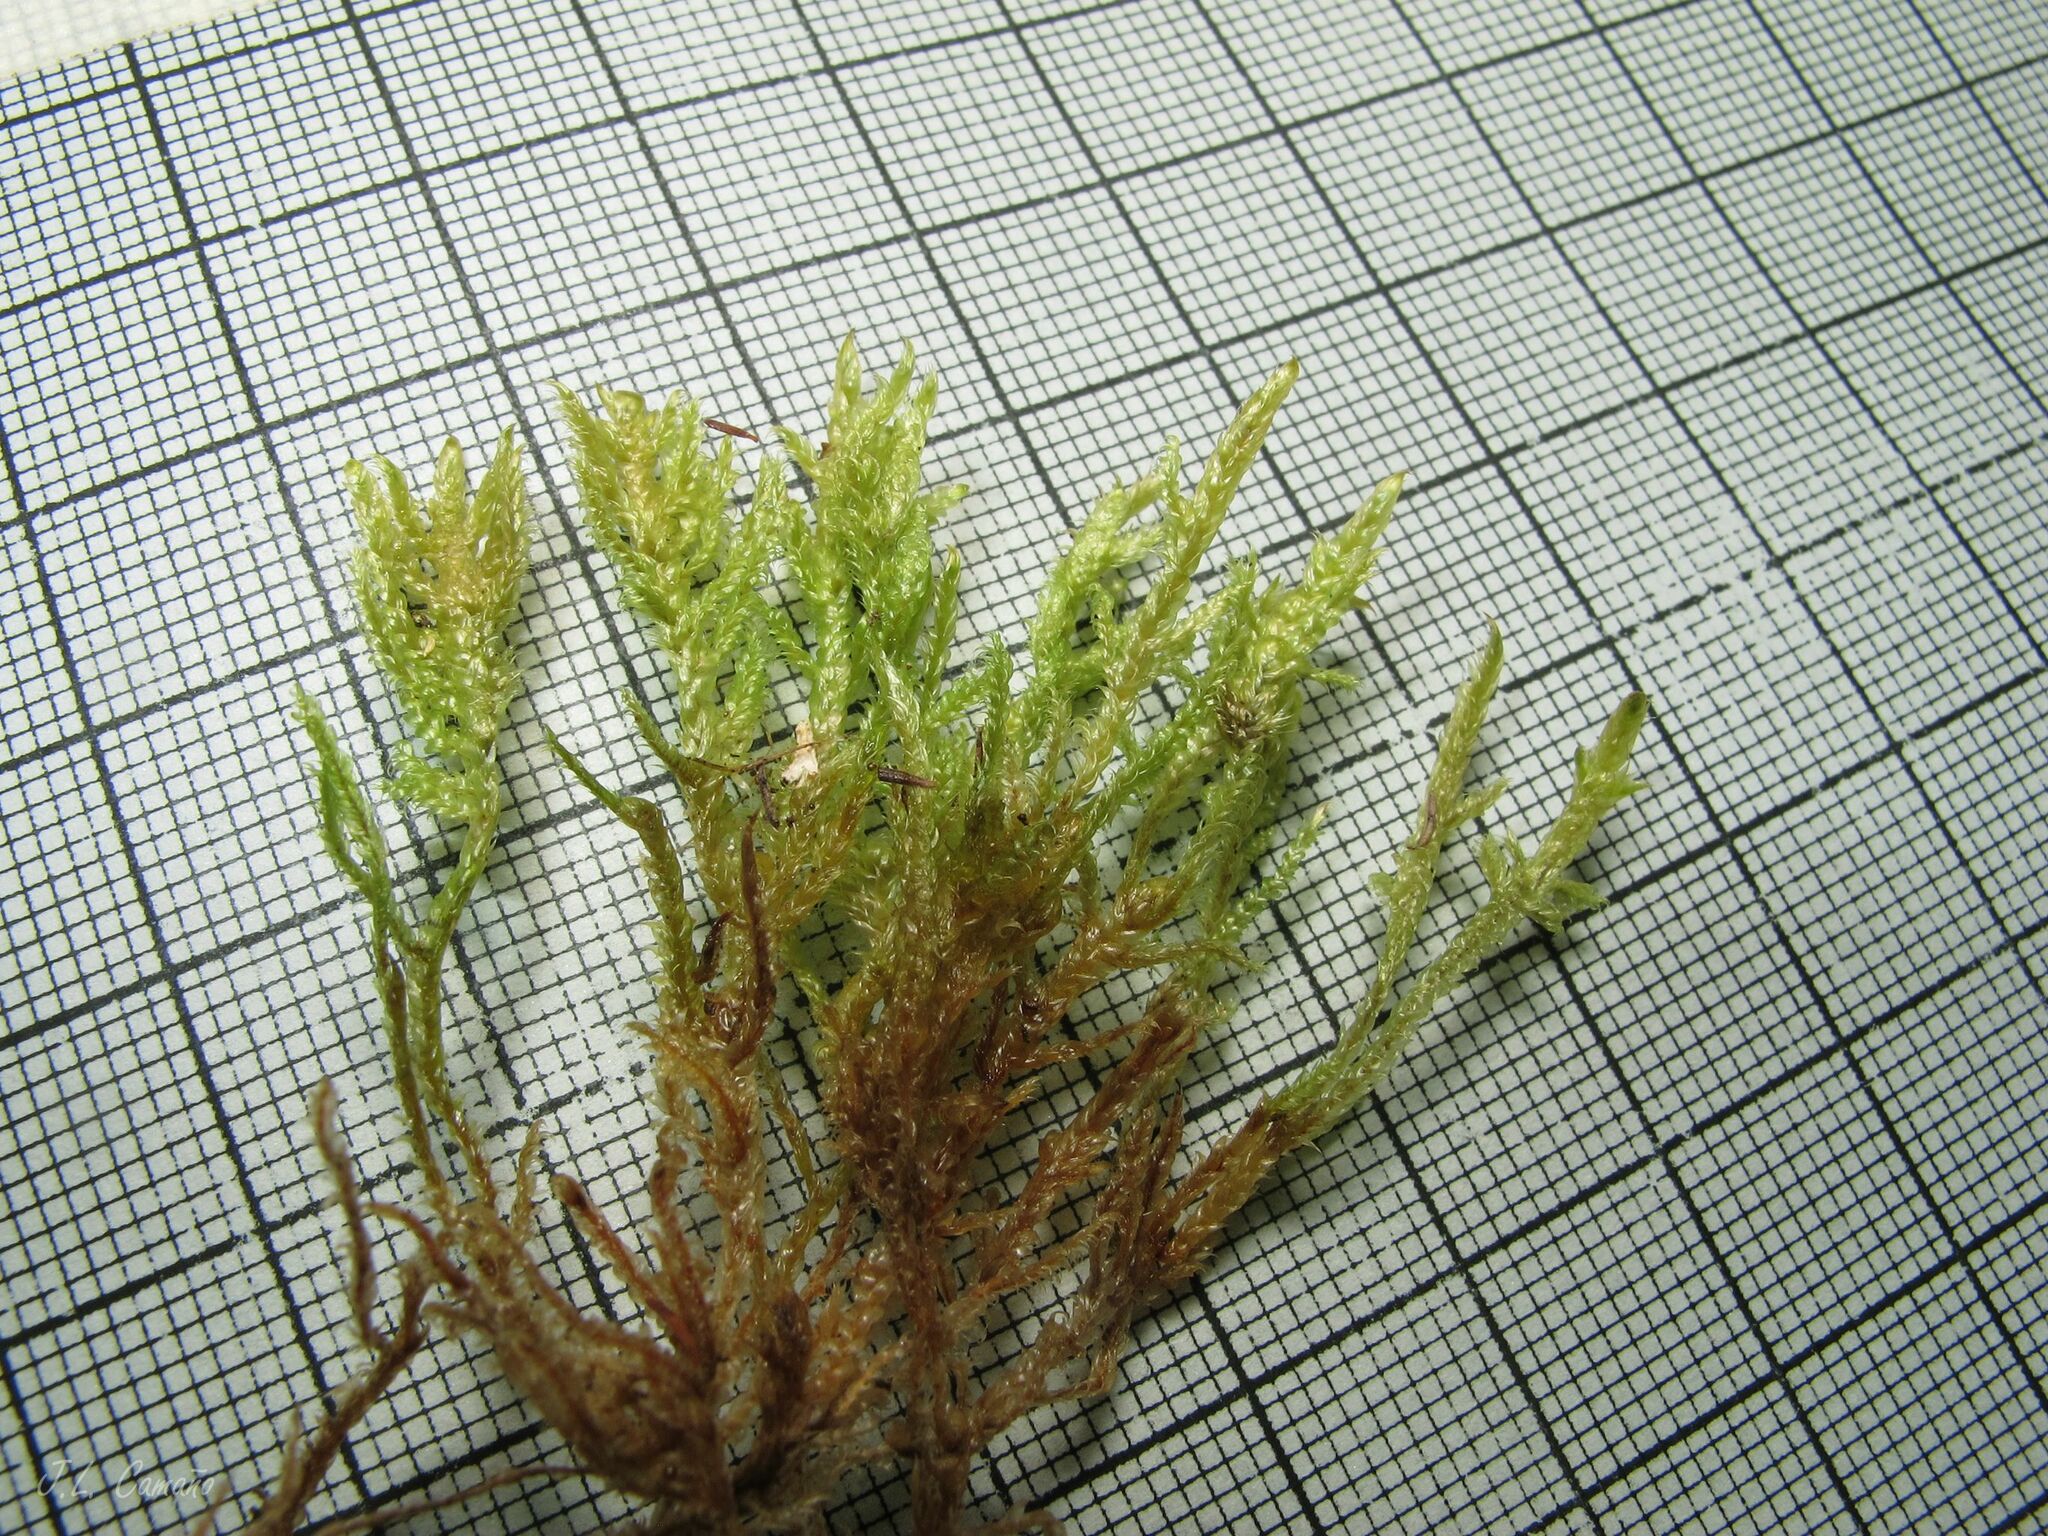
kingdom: Plantae
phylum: Bryophyta
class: Bryopsida
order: Hypnales
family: Pylaisiaceae
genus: Calliergonella
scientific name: Calliergonella lindbergii
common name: Lindberg's plait-moss
